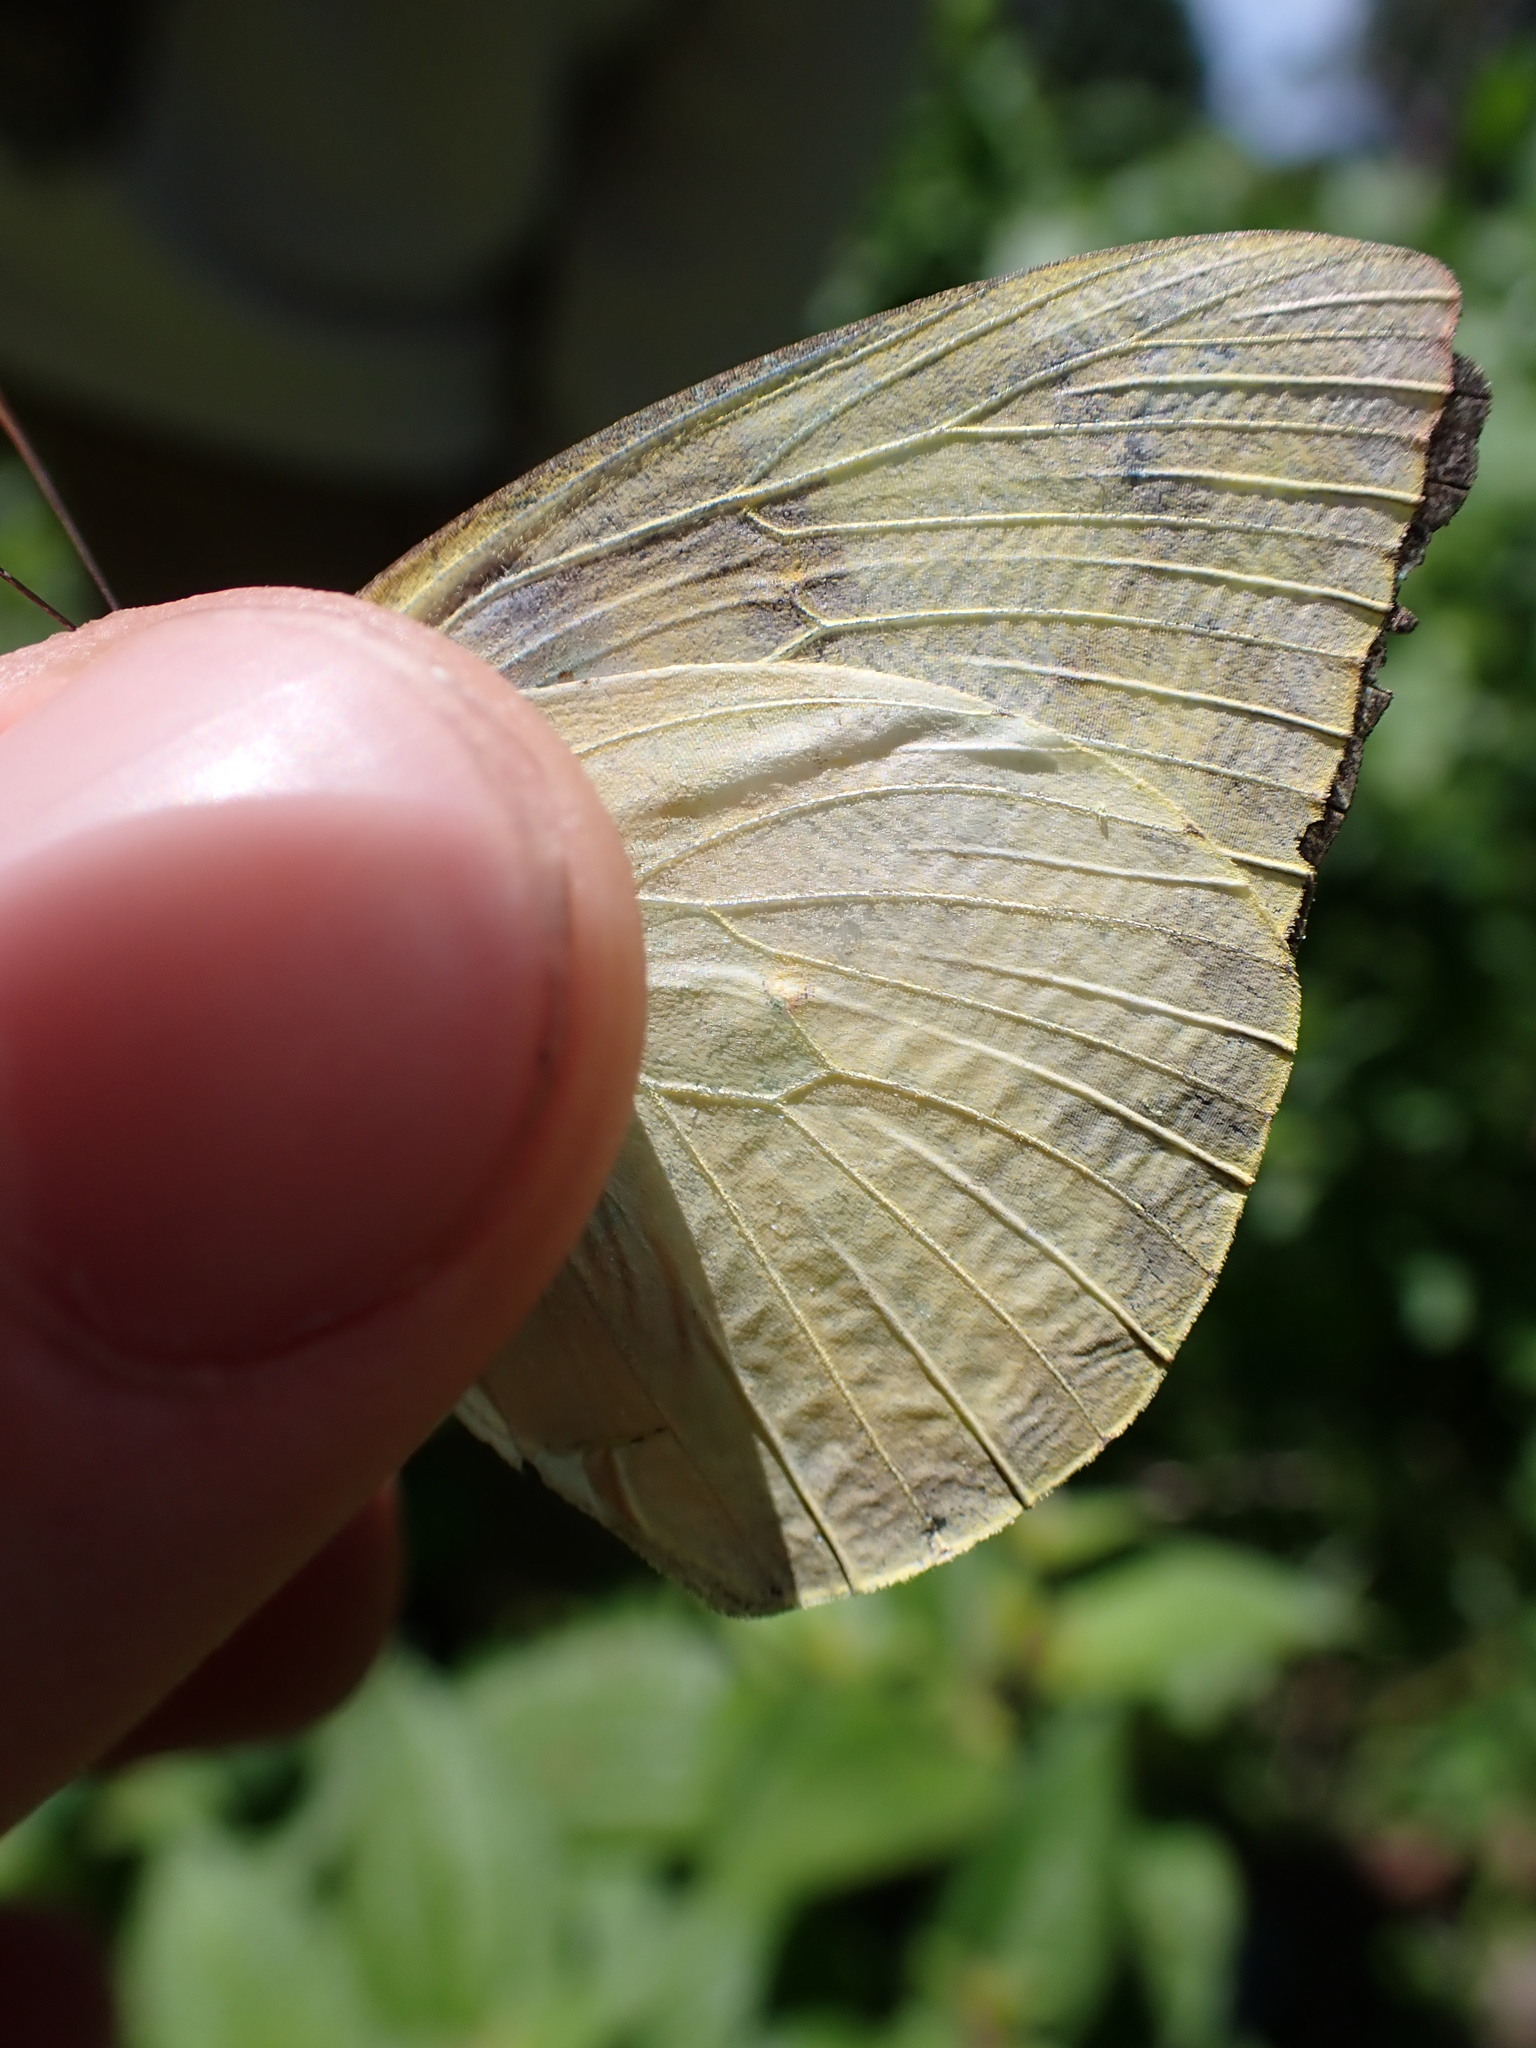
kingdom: Animalia
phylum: Arthropoda
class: Insecta
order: Lepidoptera
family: Pieridae
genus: Catopsilia
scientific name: Catopsilia pomona
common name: Common emigrant
